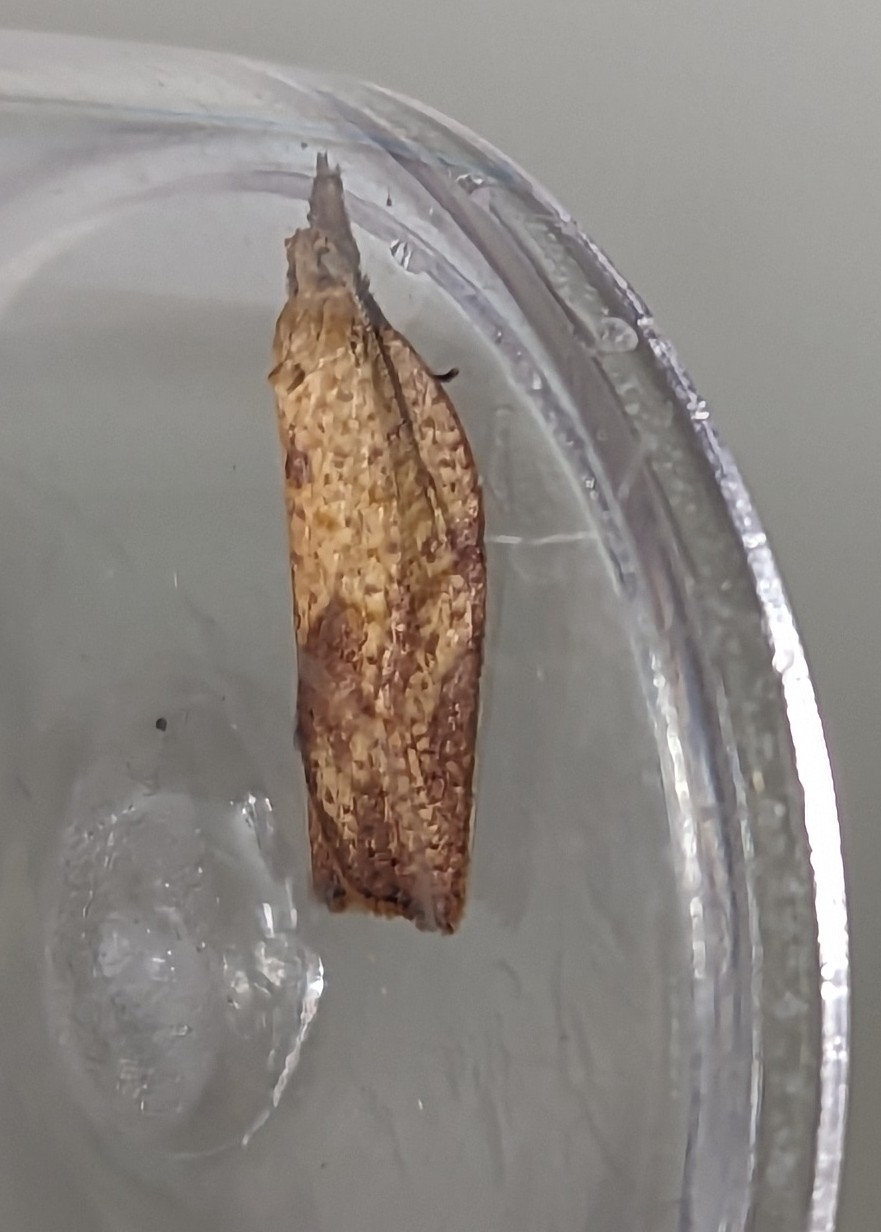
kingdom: Animalia
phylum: Arthropoda
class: Insecta
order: Lepidoptera
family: Tortricidae
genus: Epiphyas
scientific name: Epiphyas postvittana
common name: Light brown apple moth
